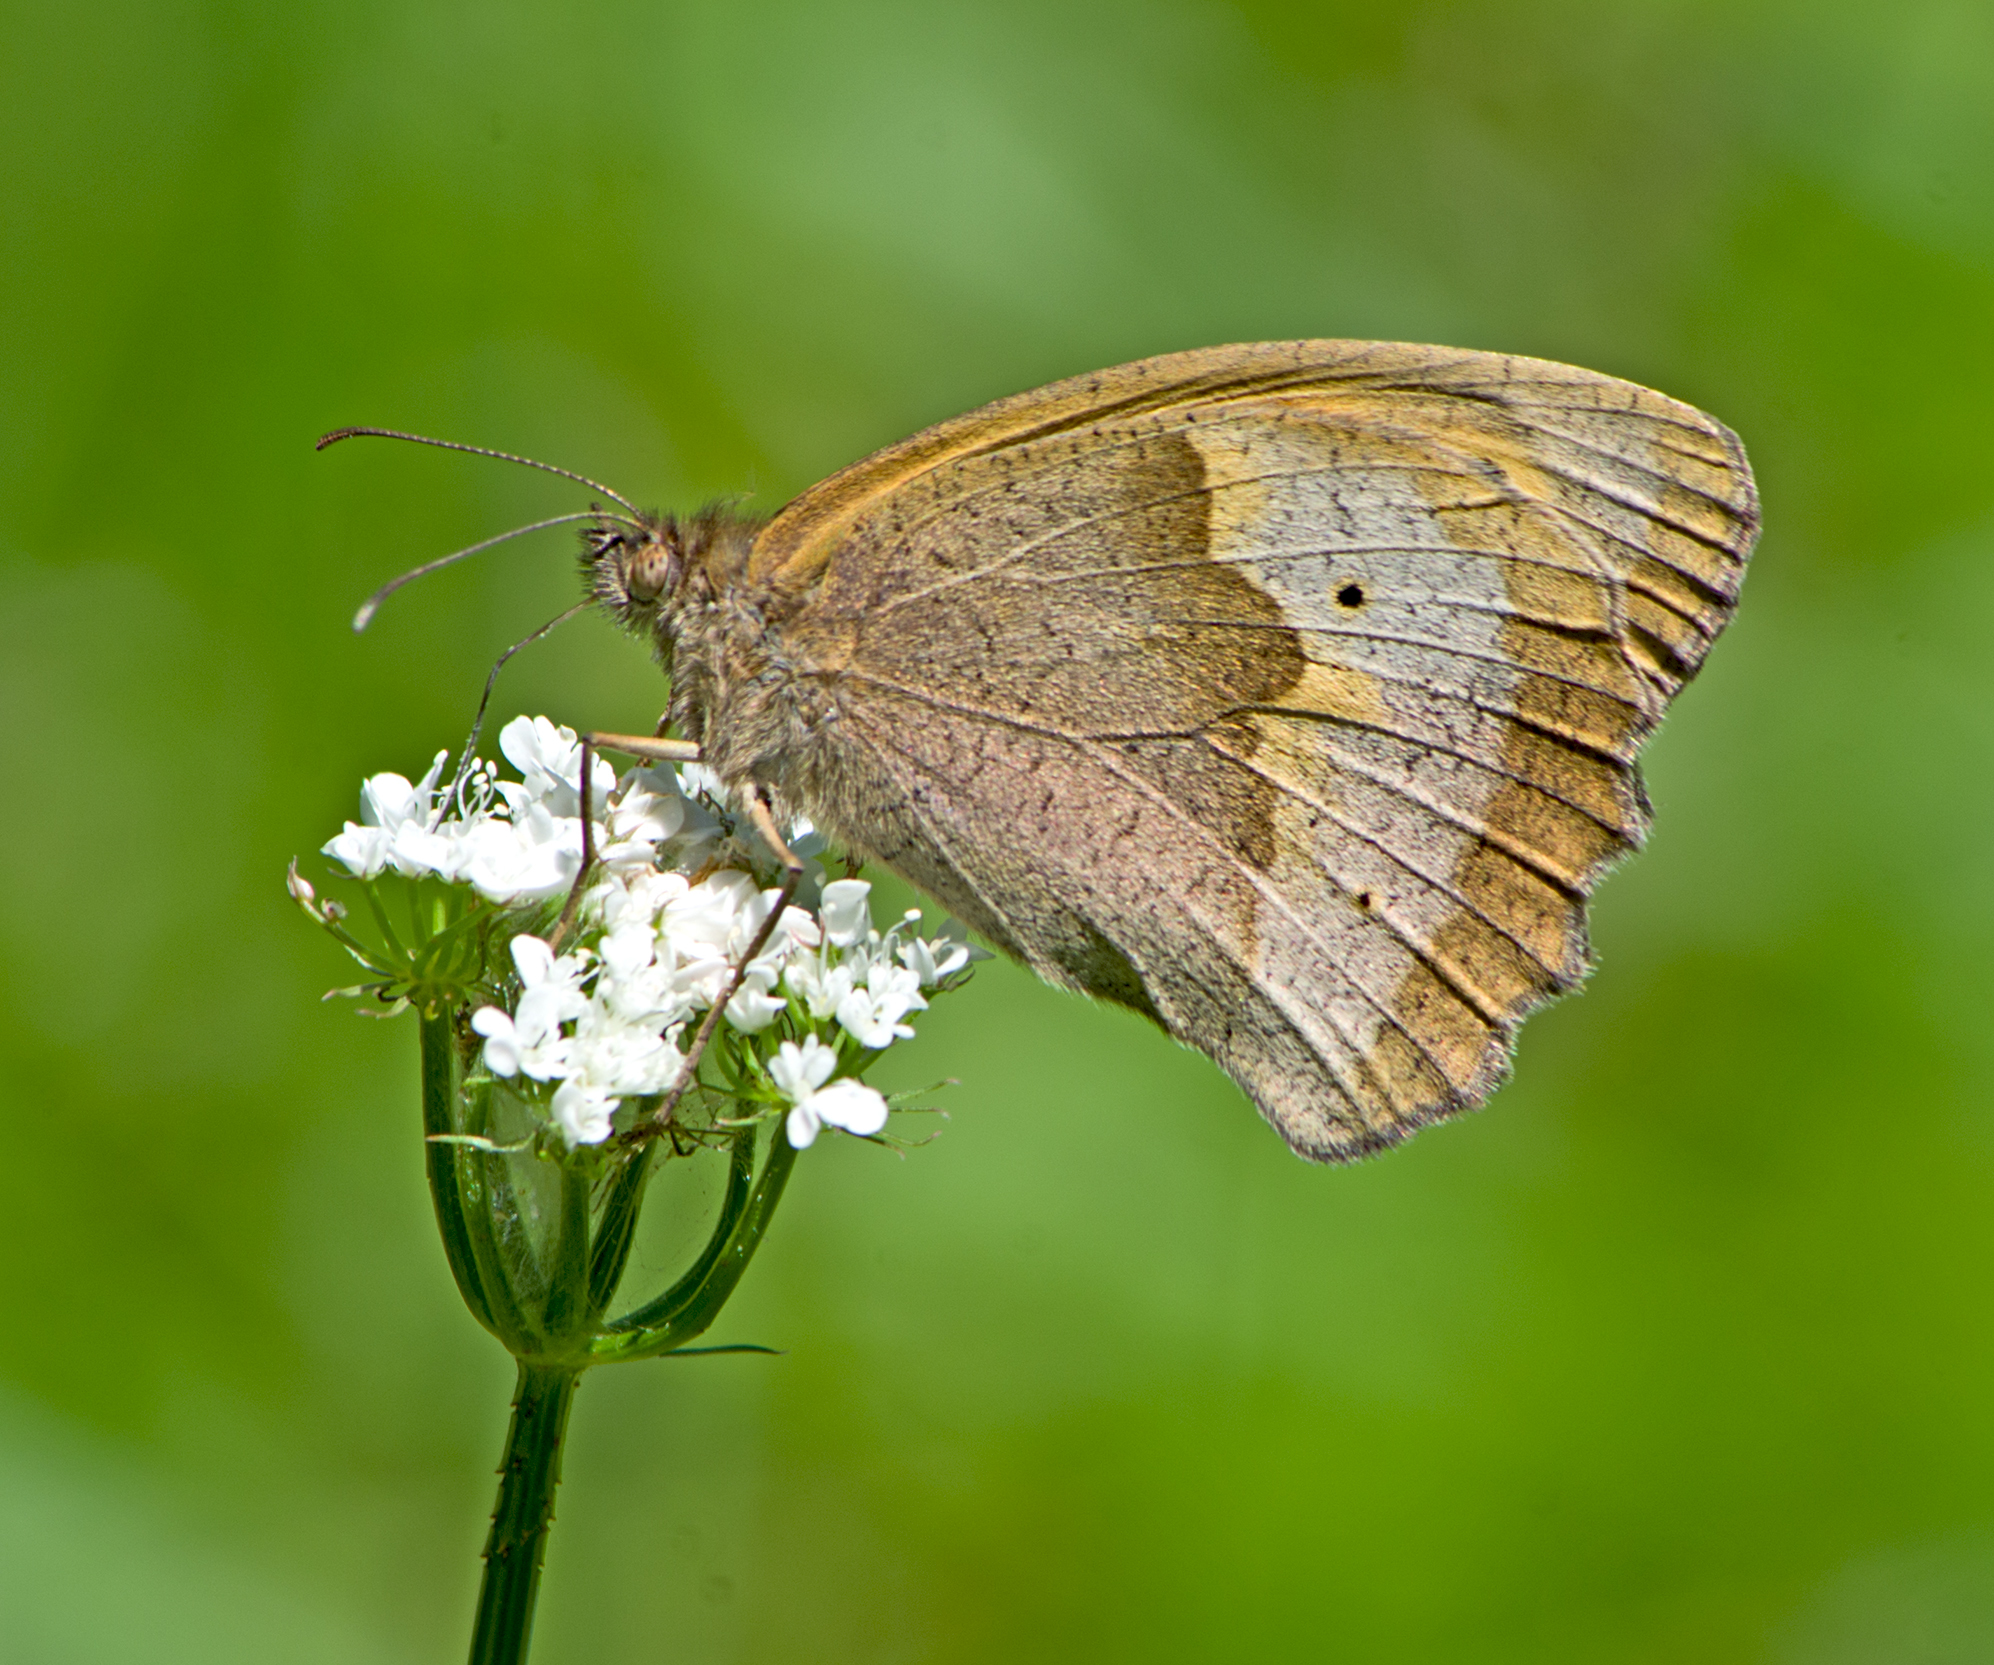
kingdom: Animalia
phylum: Arthropoda
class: Insecta
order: Lepidoptera
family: Nymphalidae
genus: Maniola
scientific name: Maniola jurtina
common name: Meadow brown
